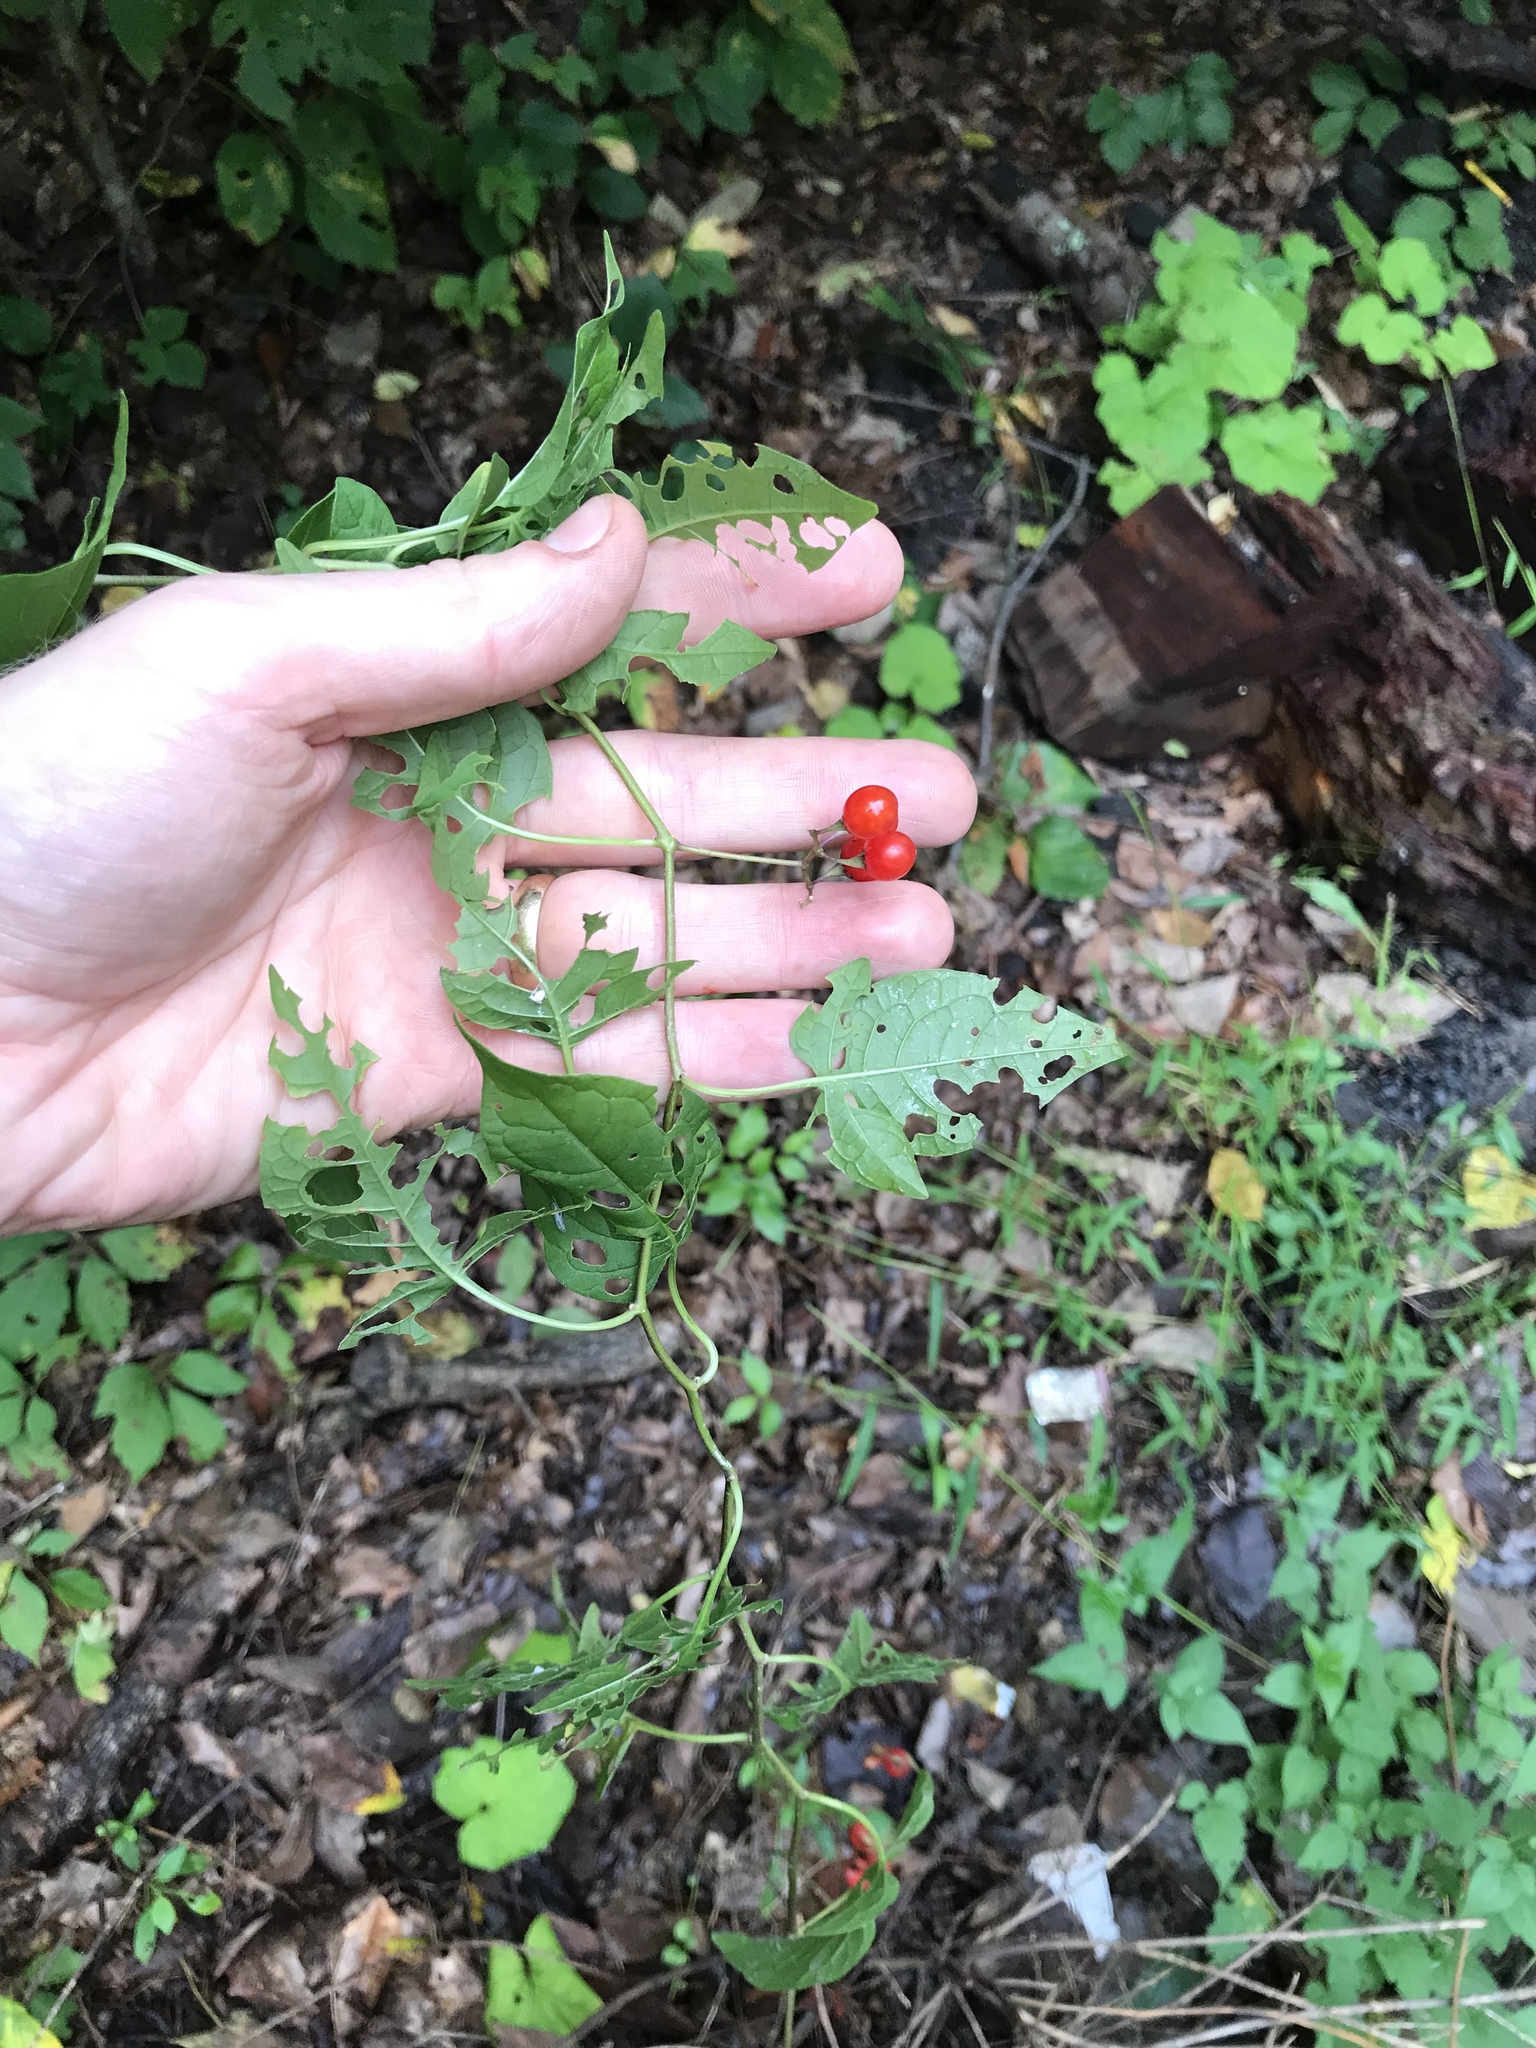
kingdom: Plantae
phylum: Tracheophyta
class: Magnoliopsida
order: Solanales
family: Solanaceae
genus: Solanum
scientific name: Solanum dulcamara
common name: Climbing nightshade
